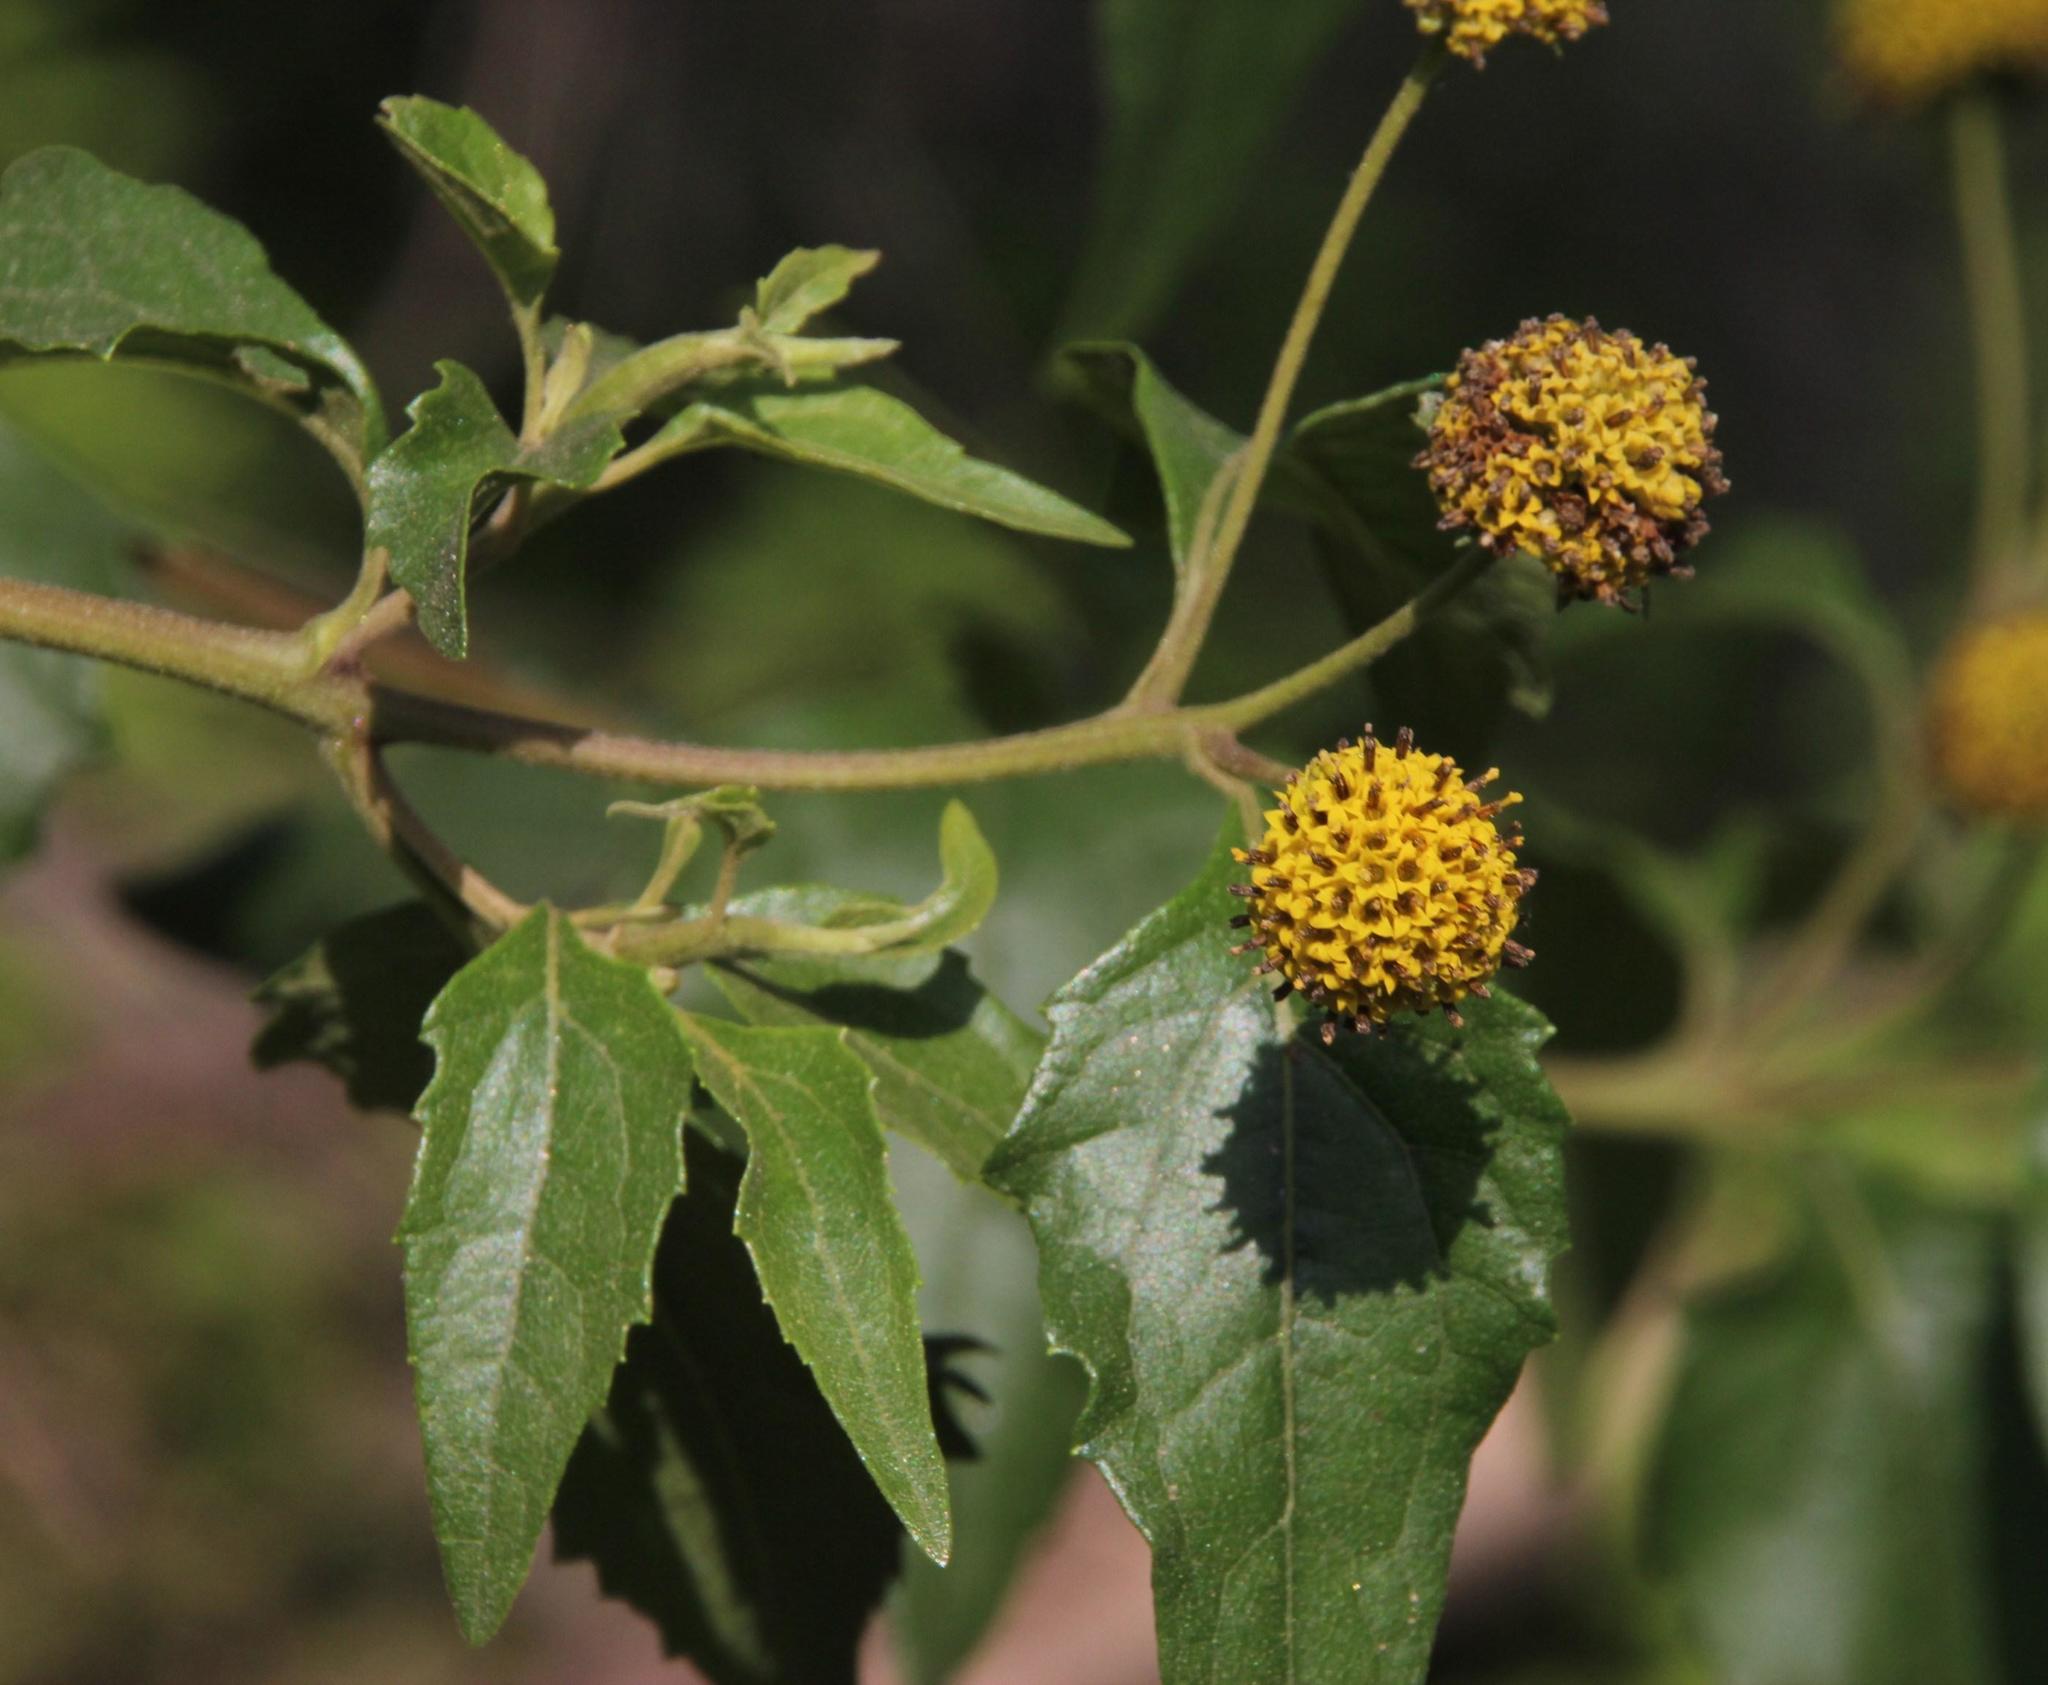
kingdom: Plantae
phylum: Tracheophyta
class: Magnoliopsida
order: Asterales
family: Asteraceae
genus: Podanthus
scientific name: Podanthus mitiqui
